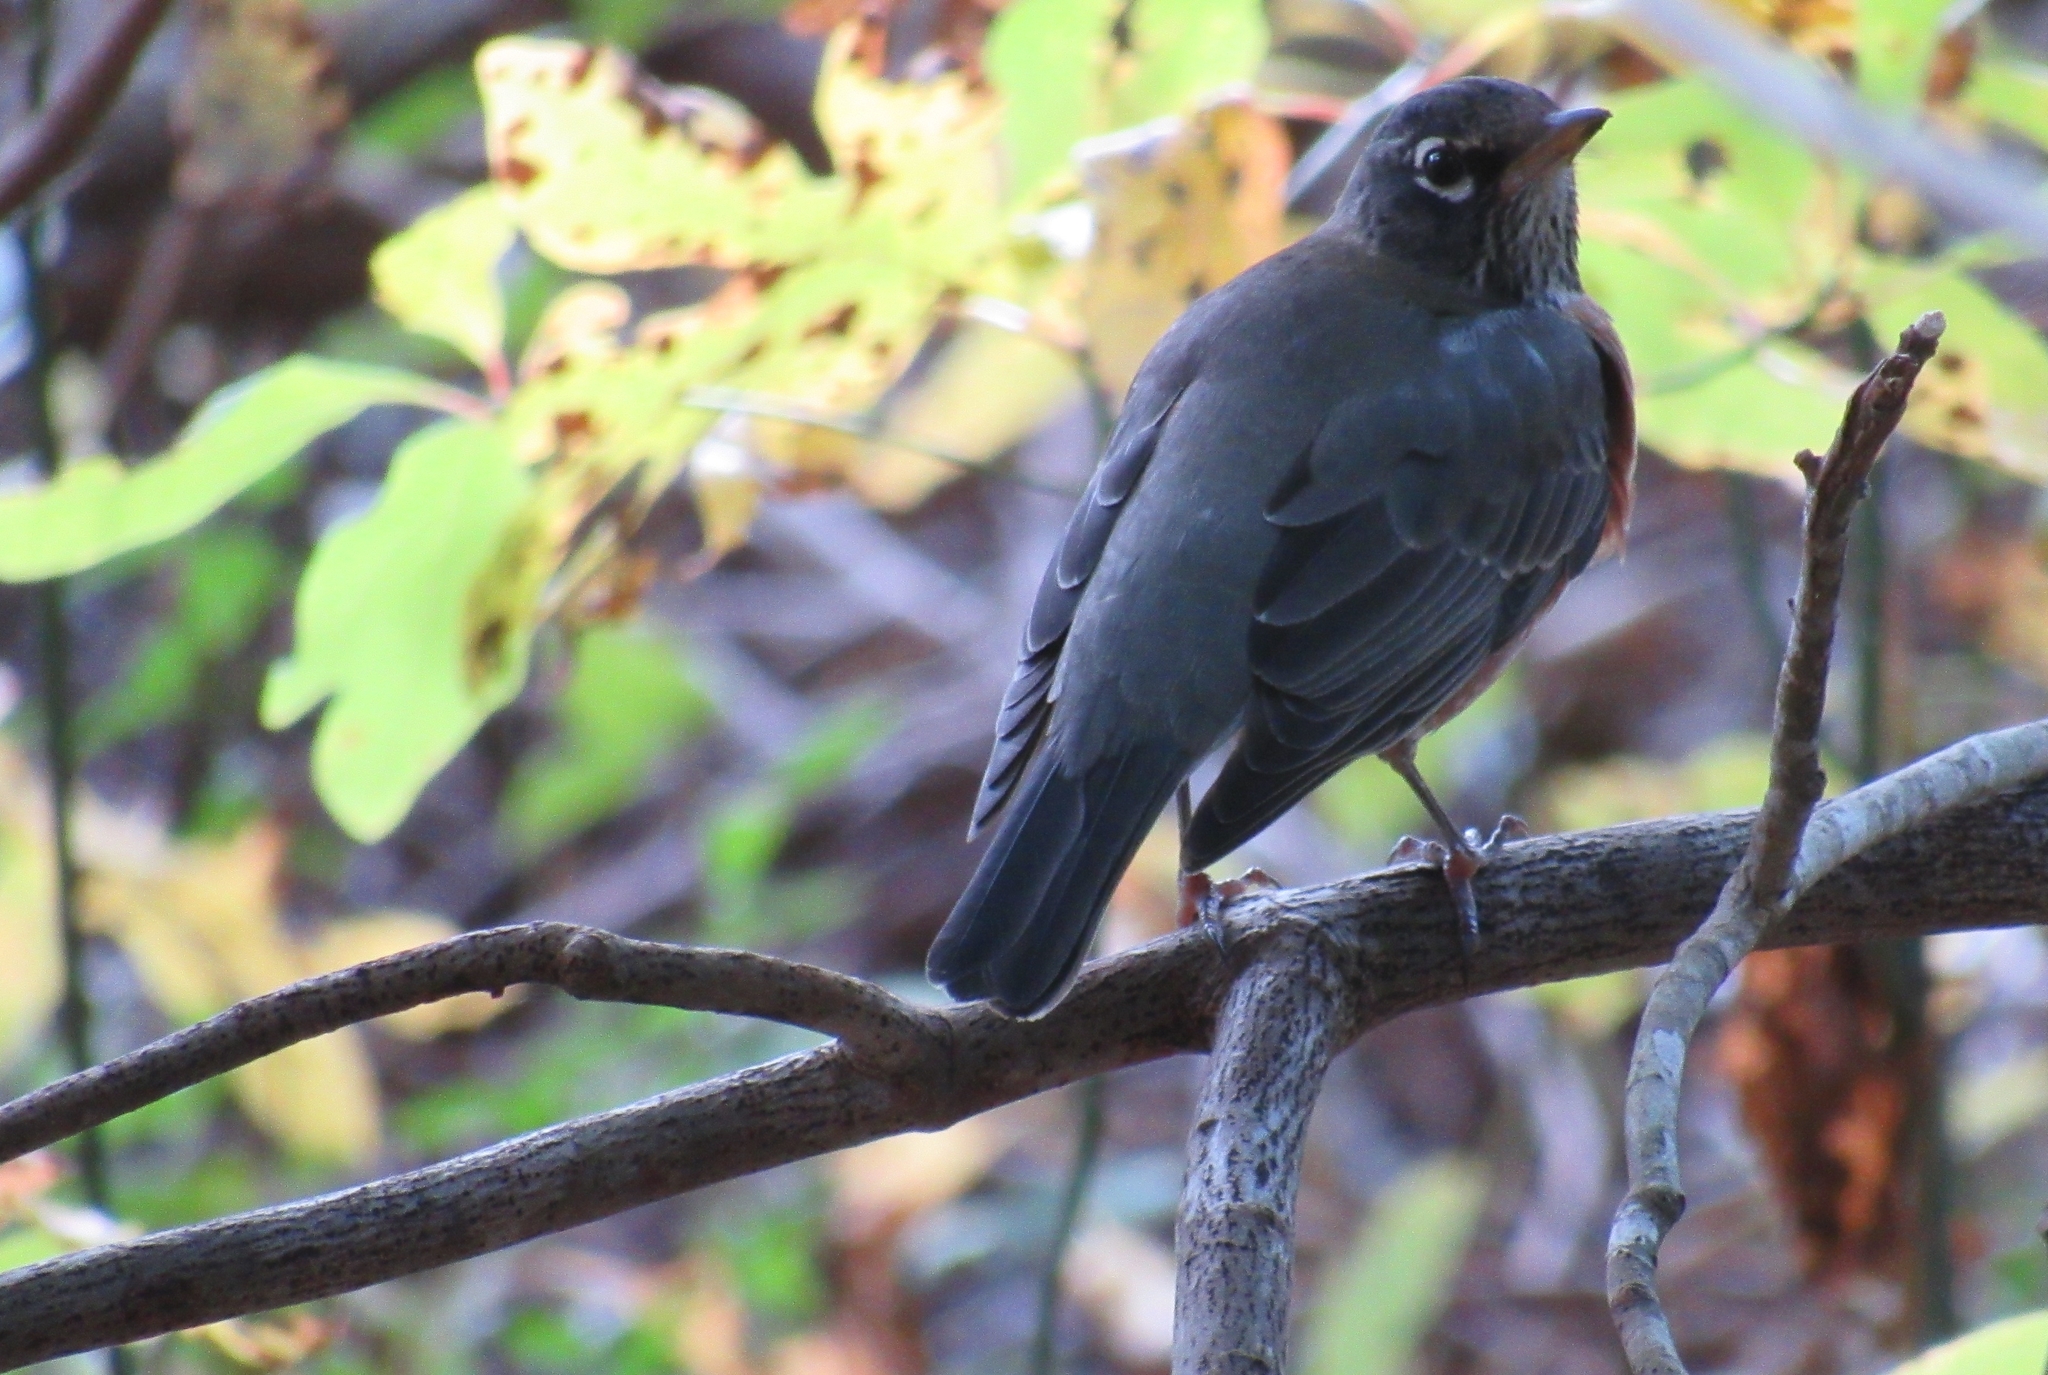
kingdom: Animalia
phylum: Chordata
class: Aves
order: Passeriformes
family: Turdidae
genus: Turdus
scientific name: Turdus migratorius
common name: American robin
